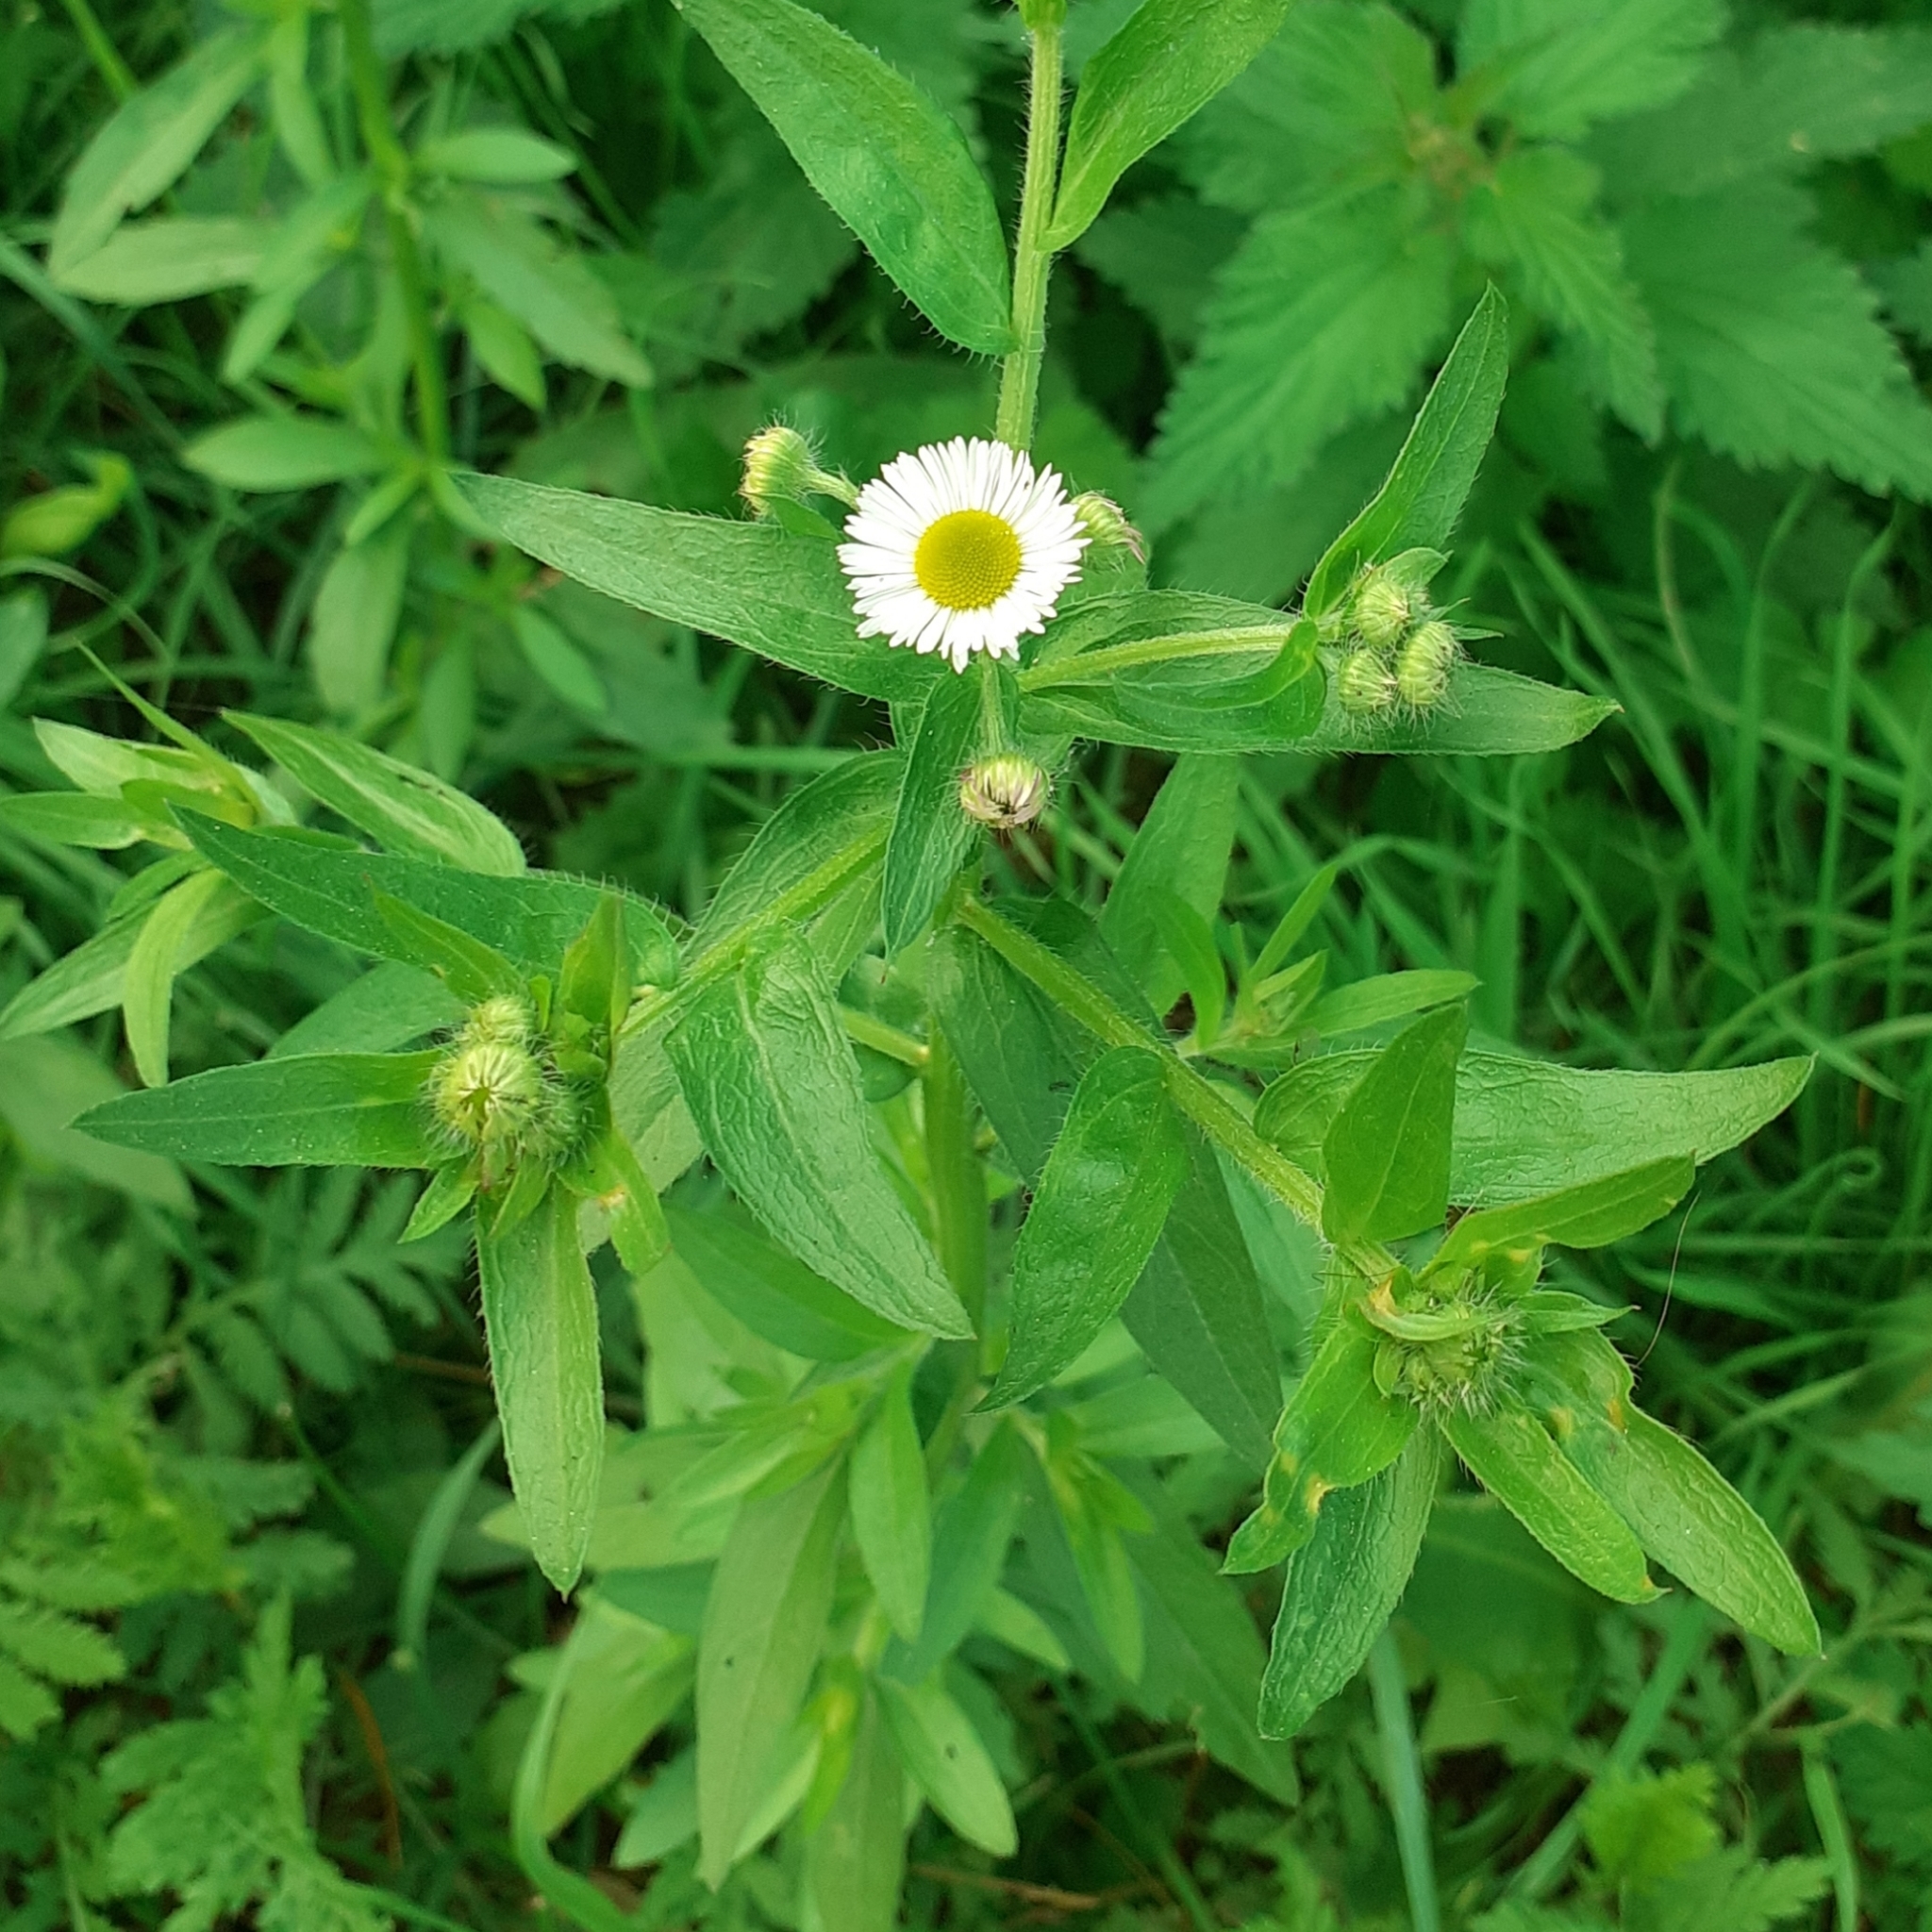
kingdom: Plantae
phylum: Tracheophyta
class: Magnoliopsida
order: Asterales
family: Asteraceae
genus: Erigeron
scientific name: Erigeron annuus
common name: Tall fleabane
